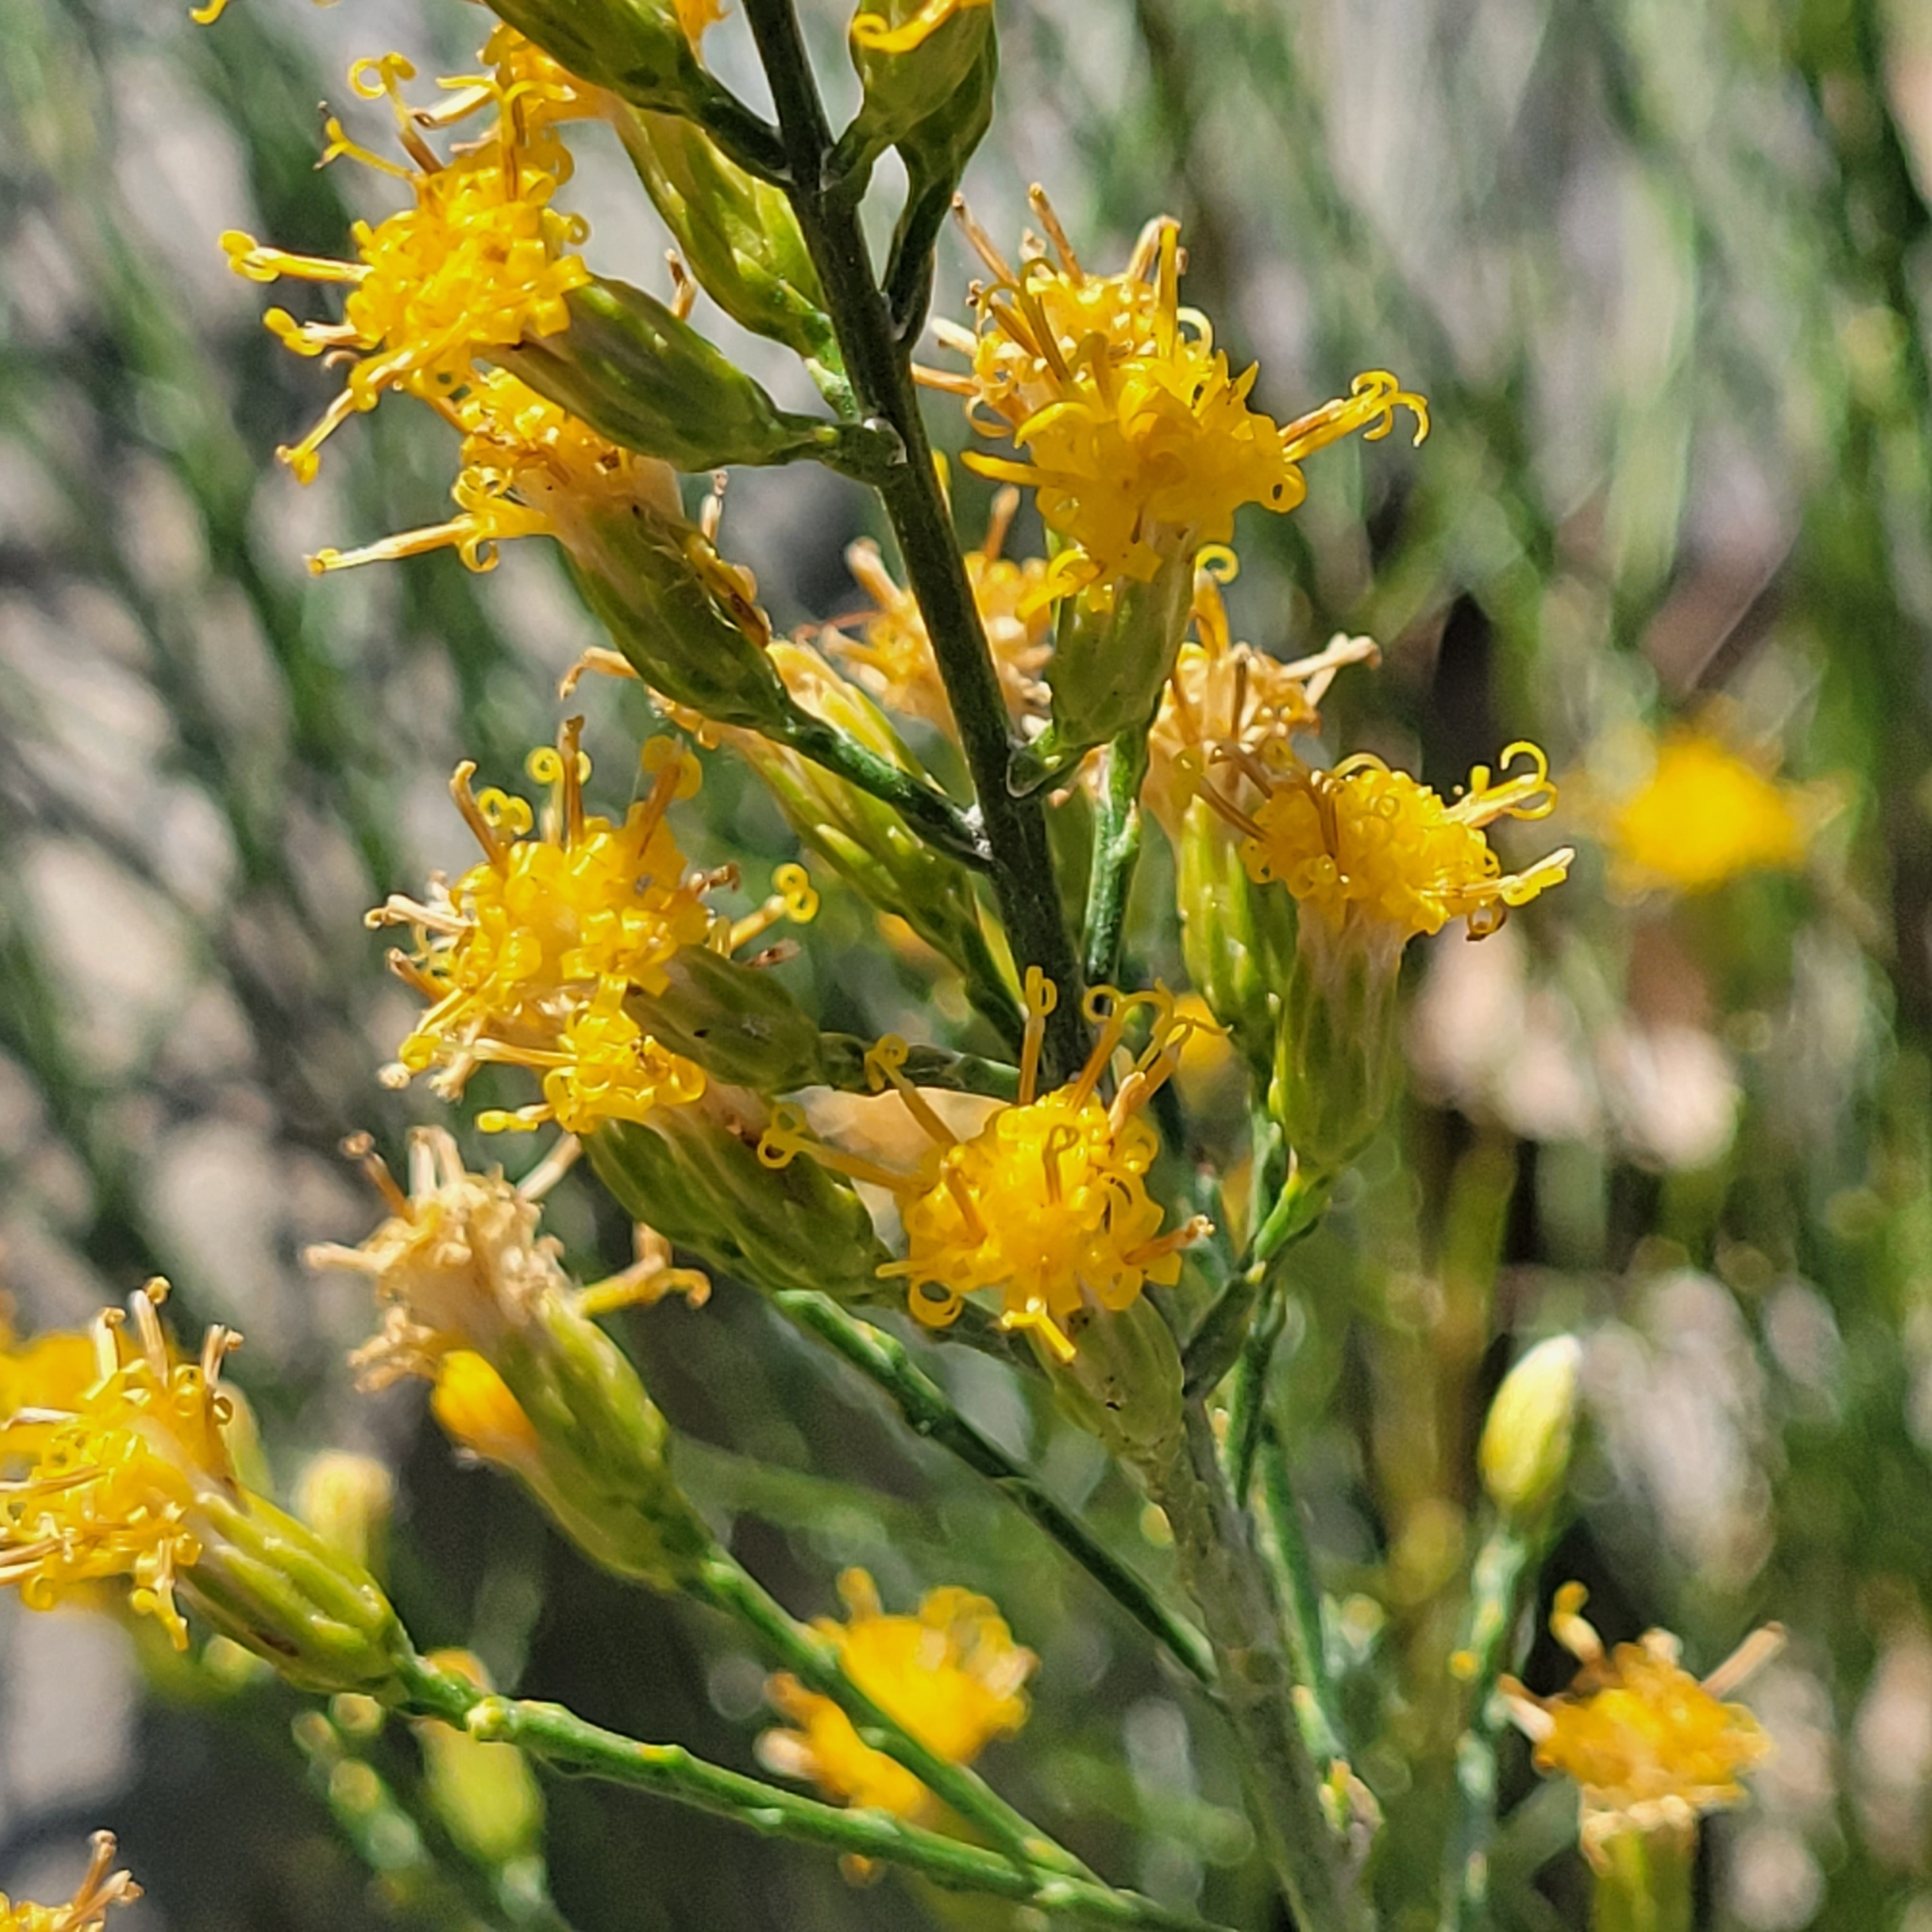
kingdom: Plantae
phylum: Tracheophyta
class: Magnoliopsida
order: Asterales
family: Asteraceae
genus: Lepidospartum
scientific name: Lepidospartum squamatum
